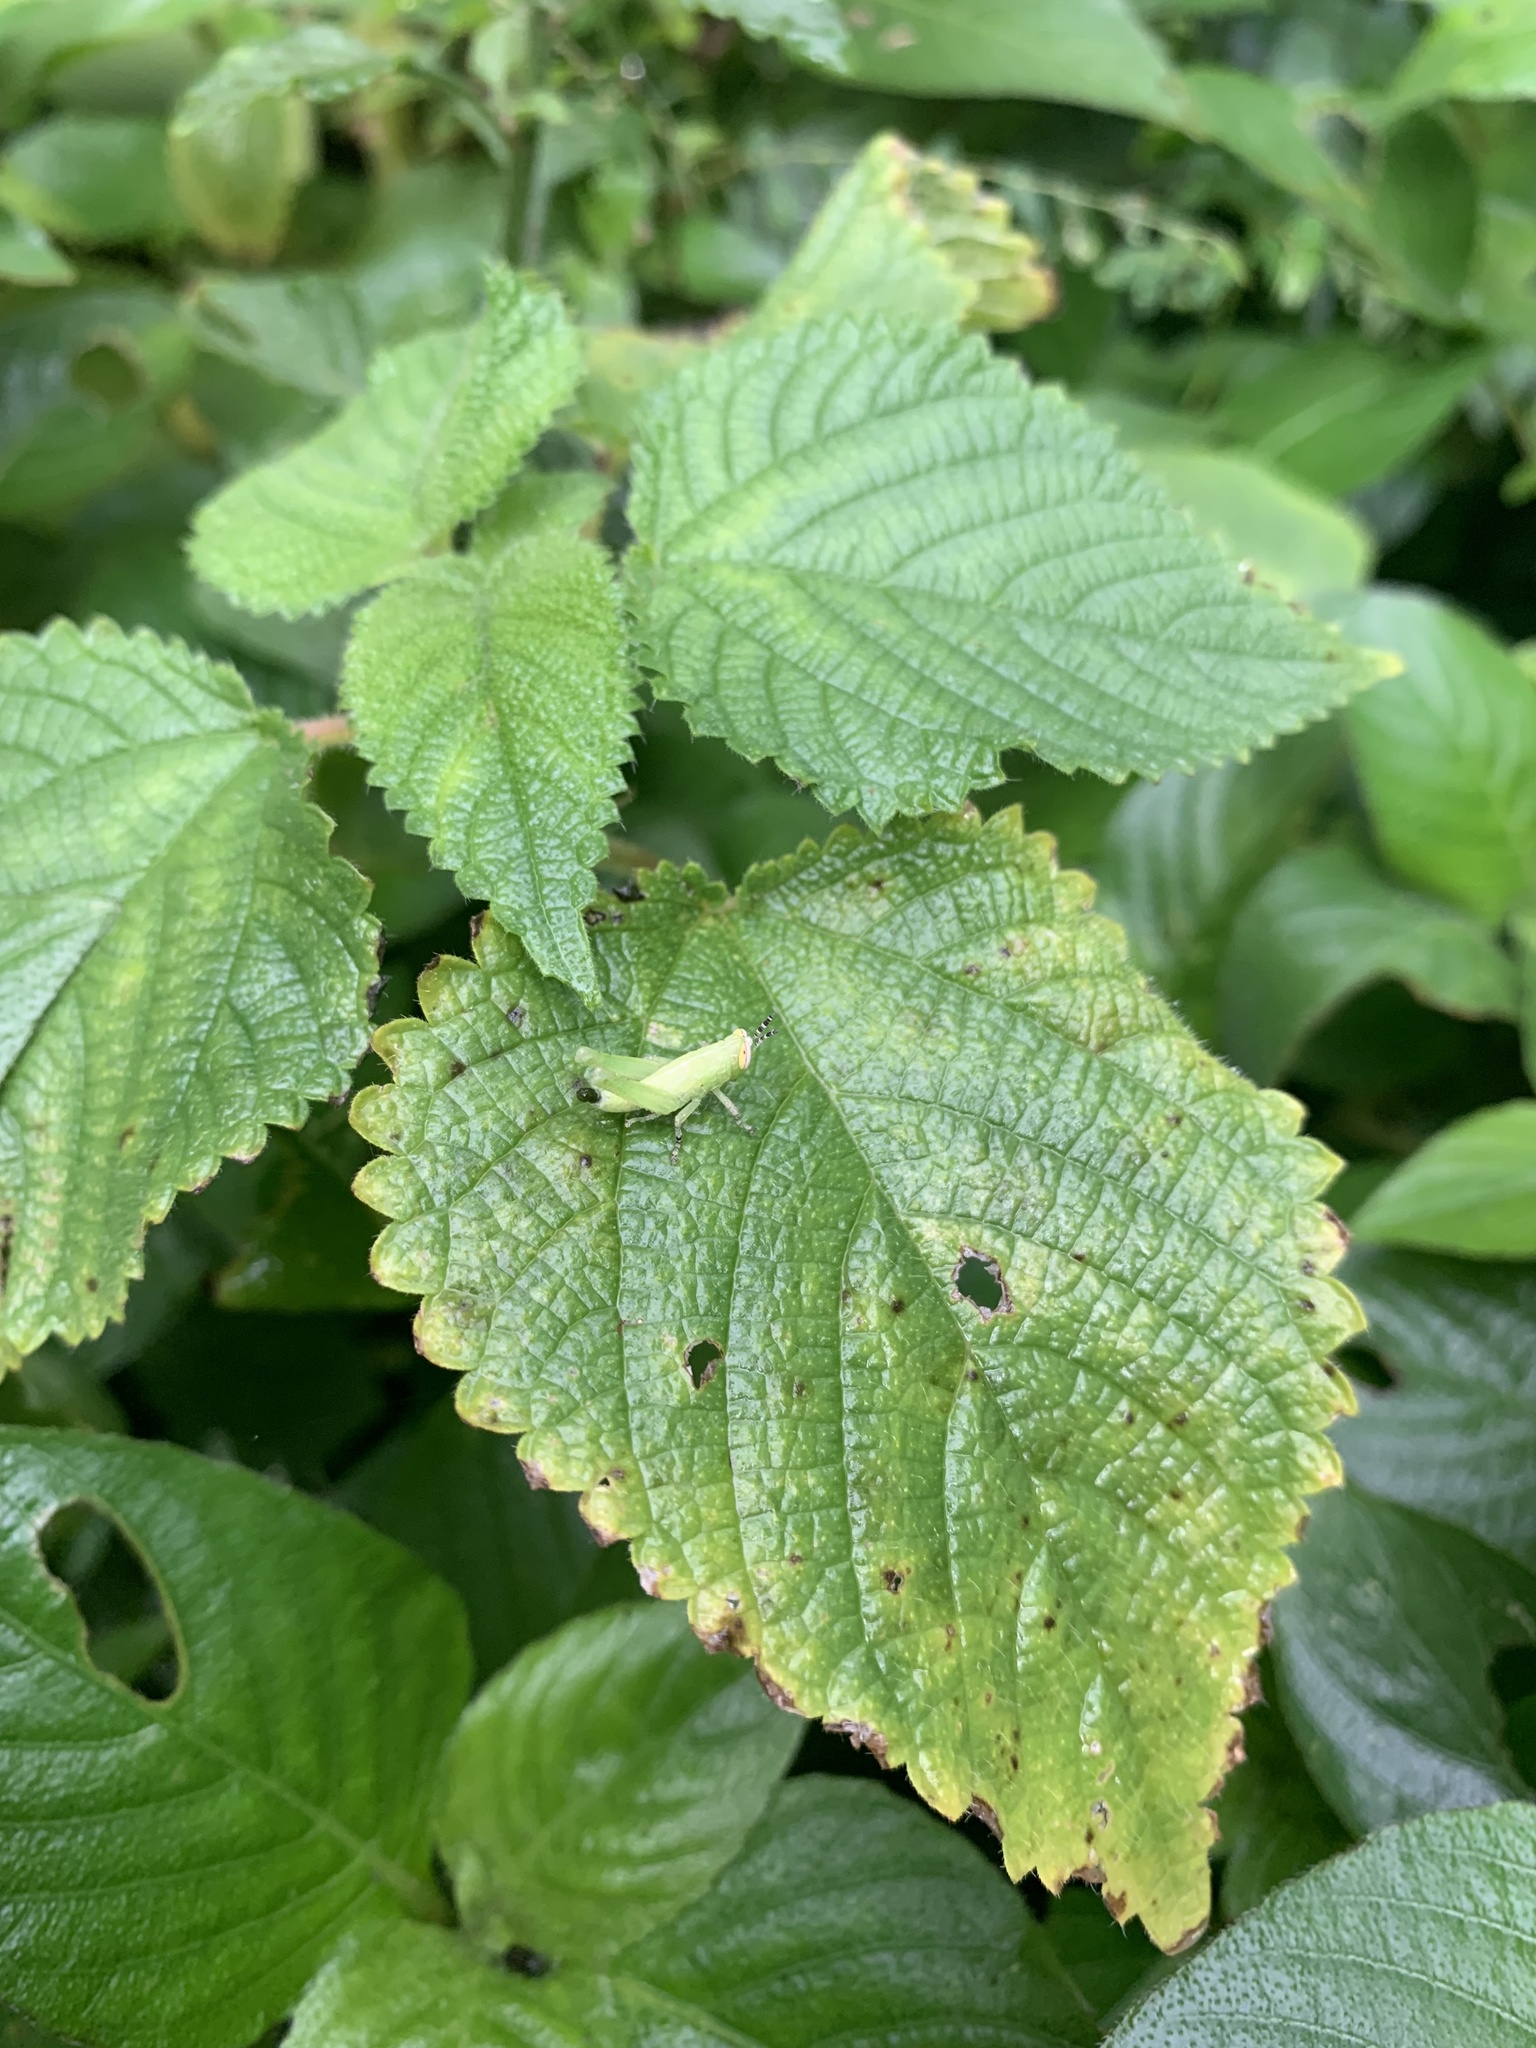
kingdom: Animalia
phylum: Arthropoda
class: Insecta
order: Orthoptera
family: Acrididae
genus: Abracris
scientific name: Abracris flavolineata
